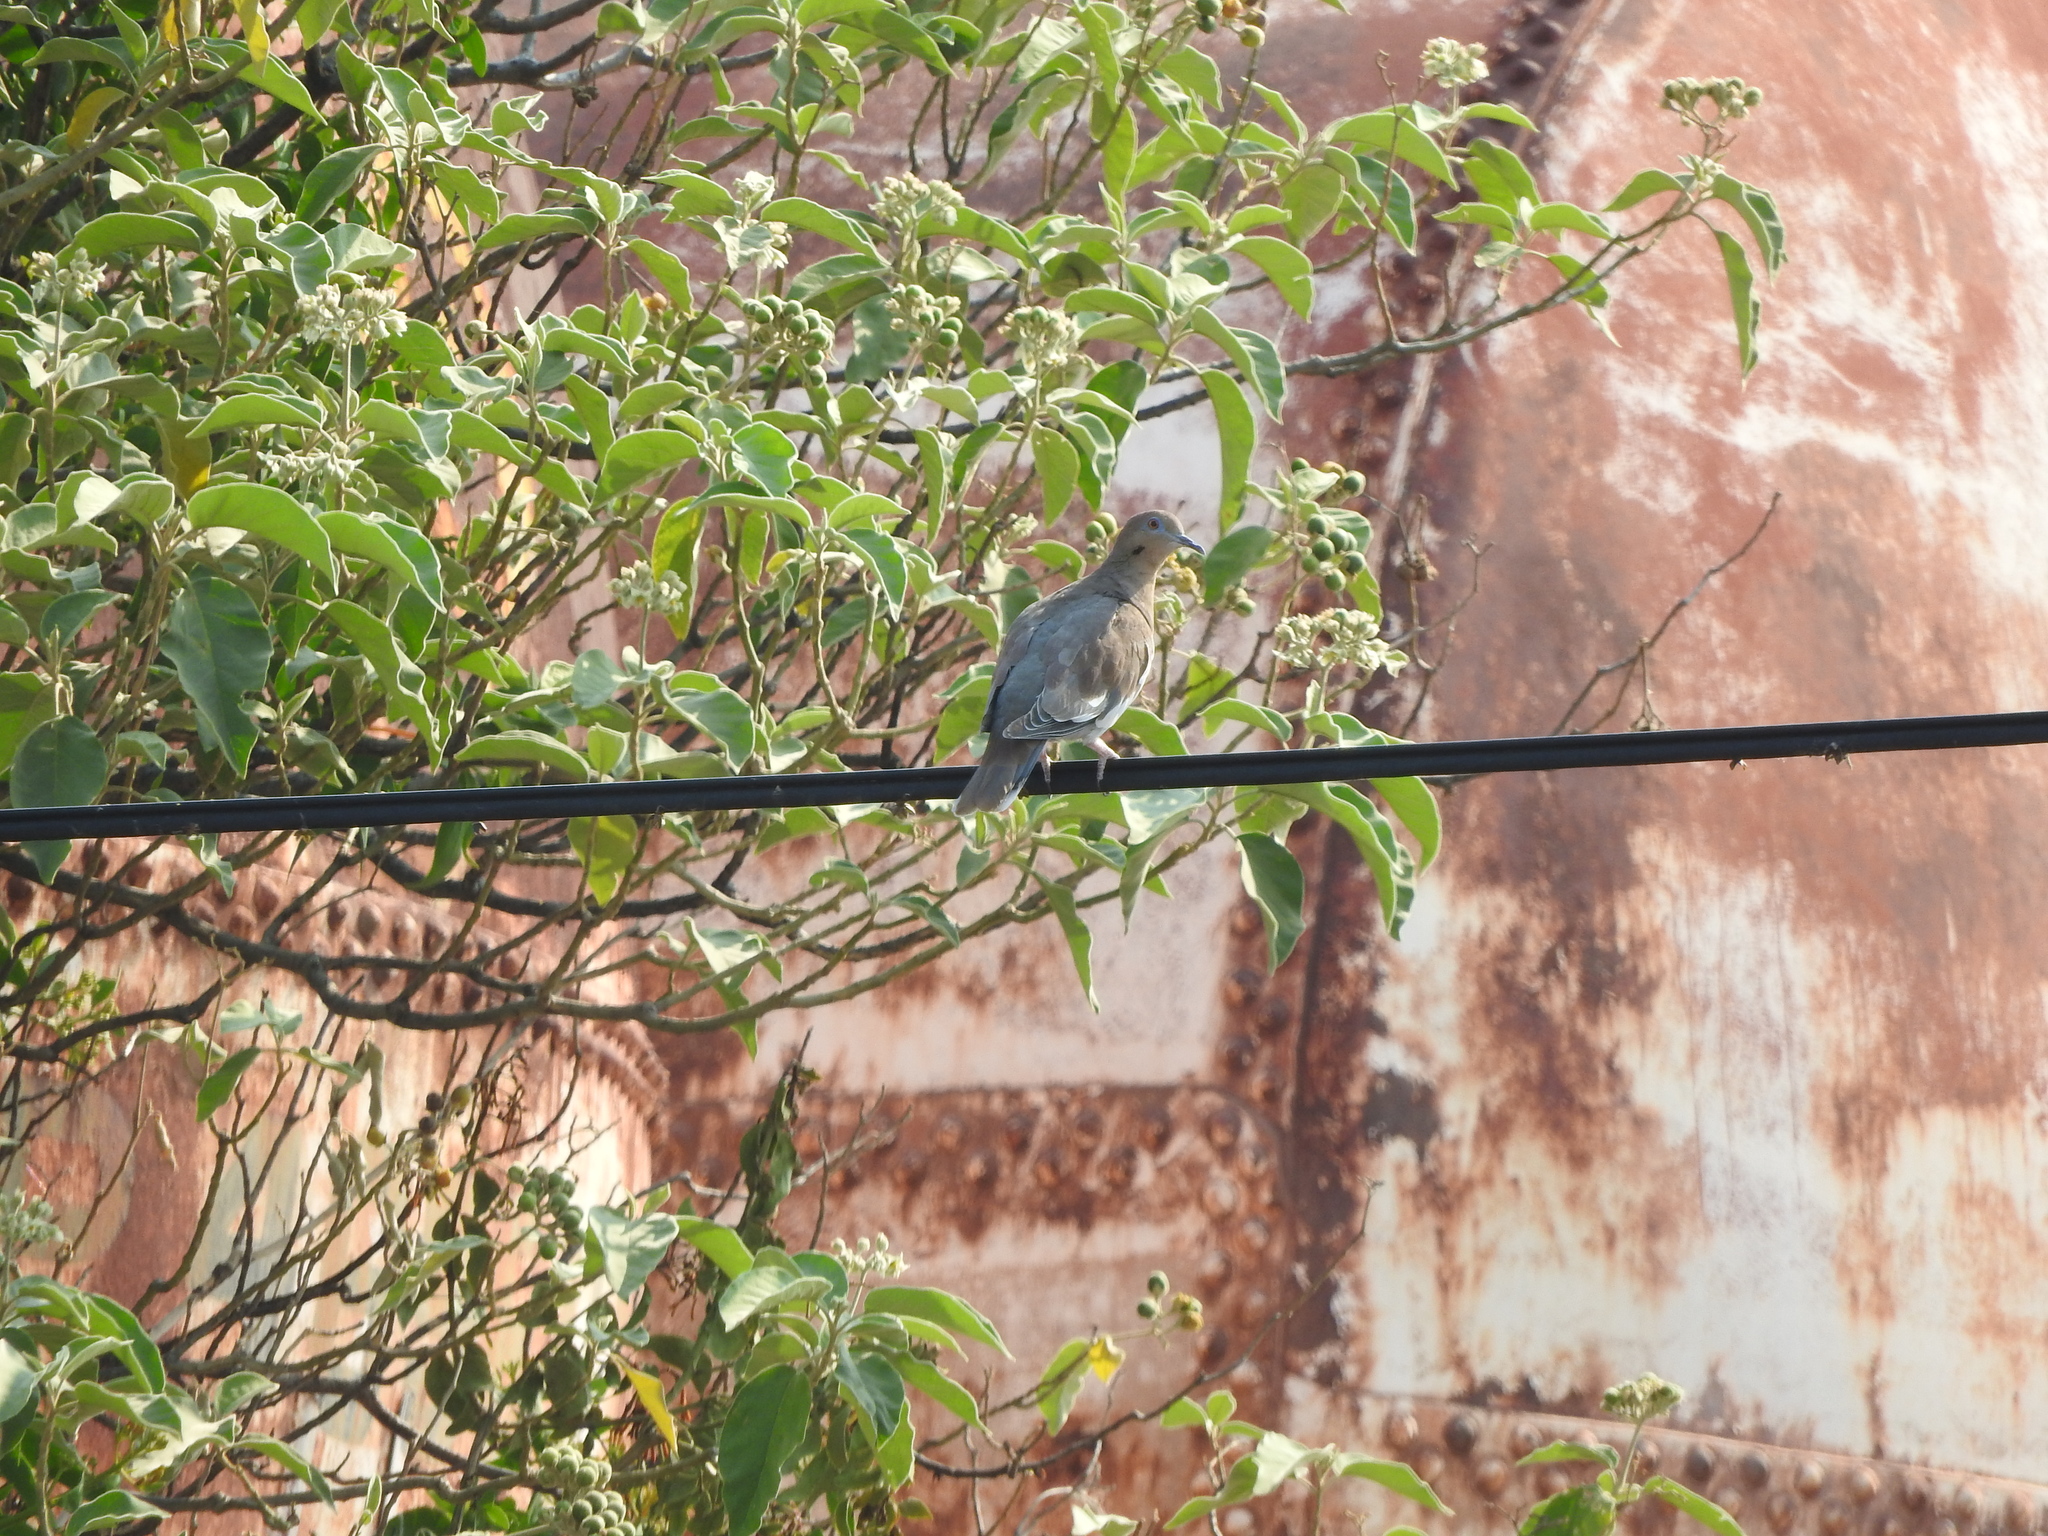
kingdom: Animalia
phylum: Chordata
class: Aves
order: Columbiformes
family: Columbidae
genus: Zenaida
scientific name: Zenaida asiatica
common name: White-winged dove
